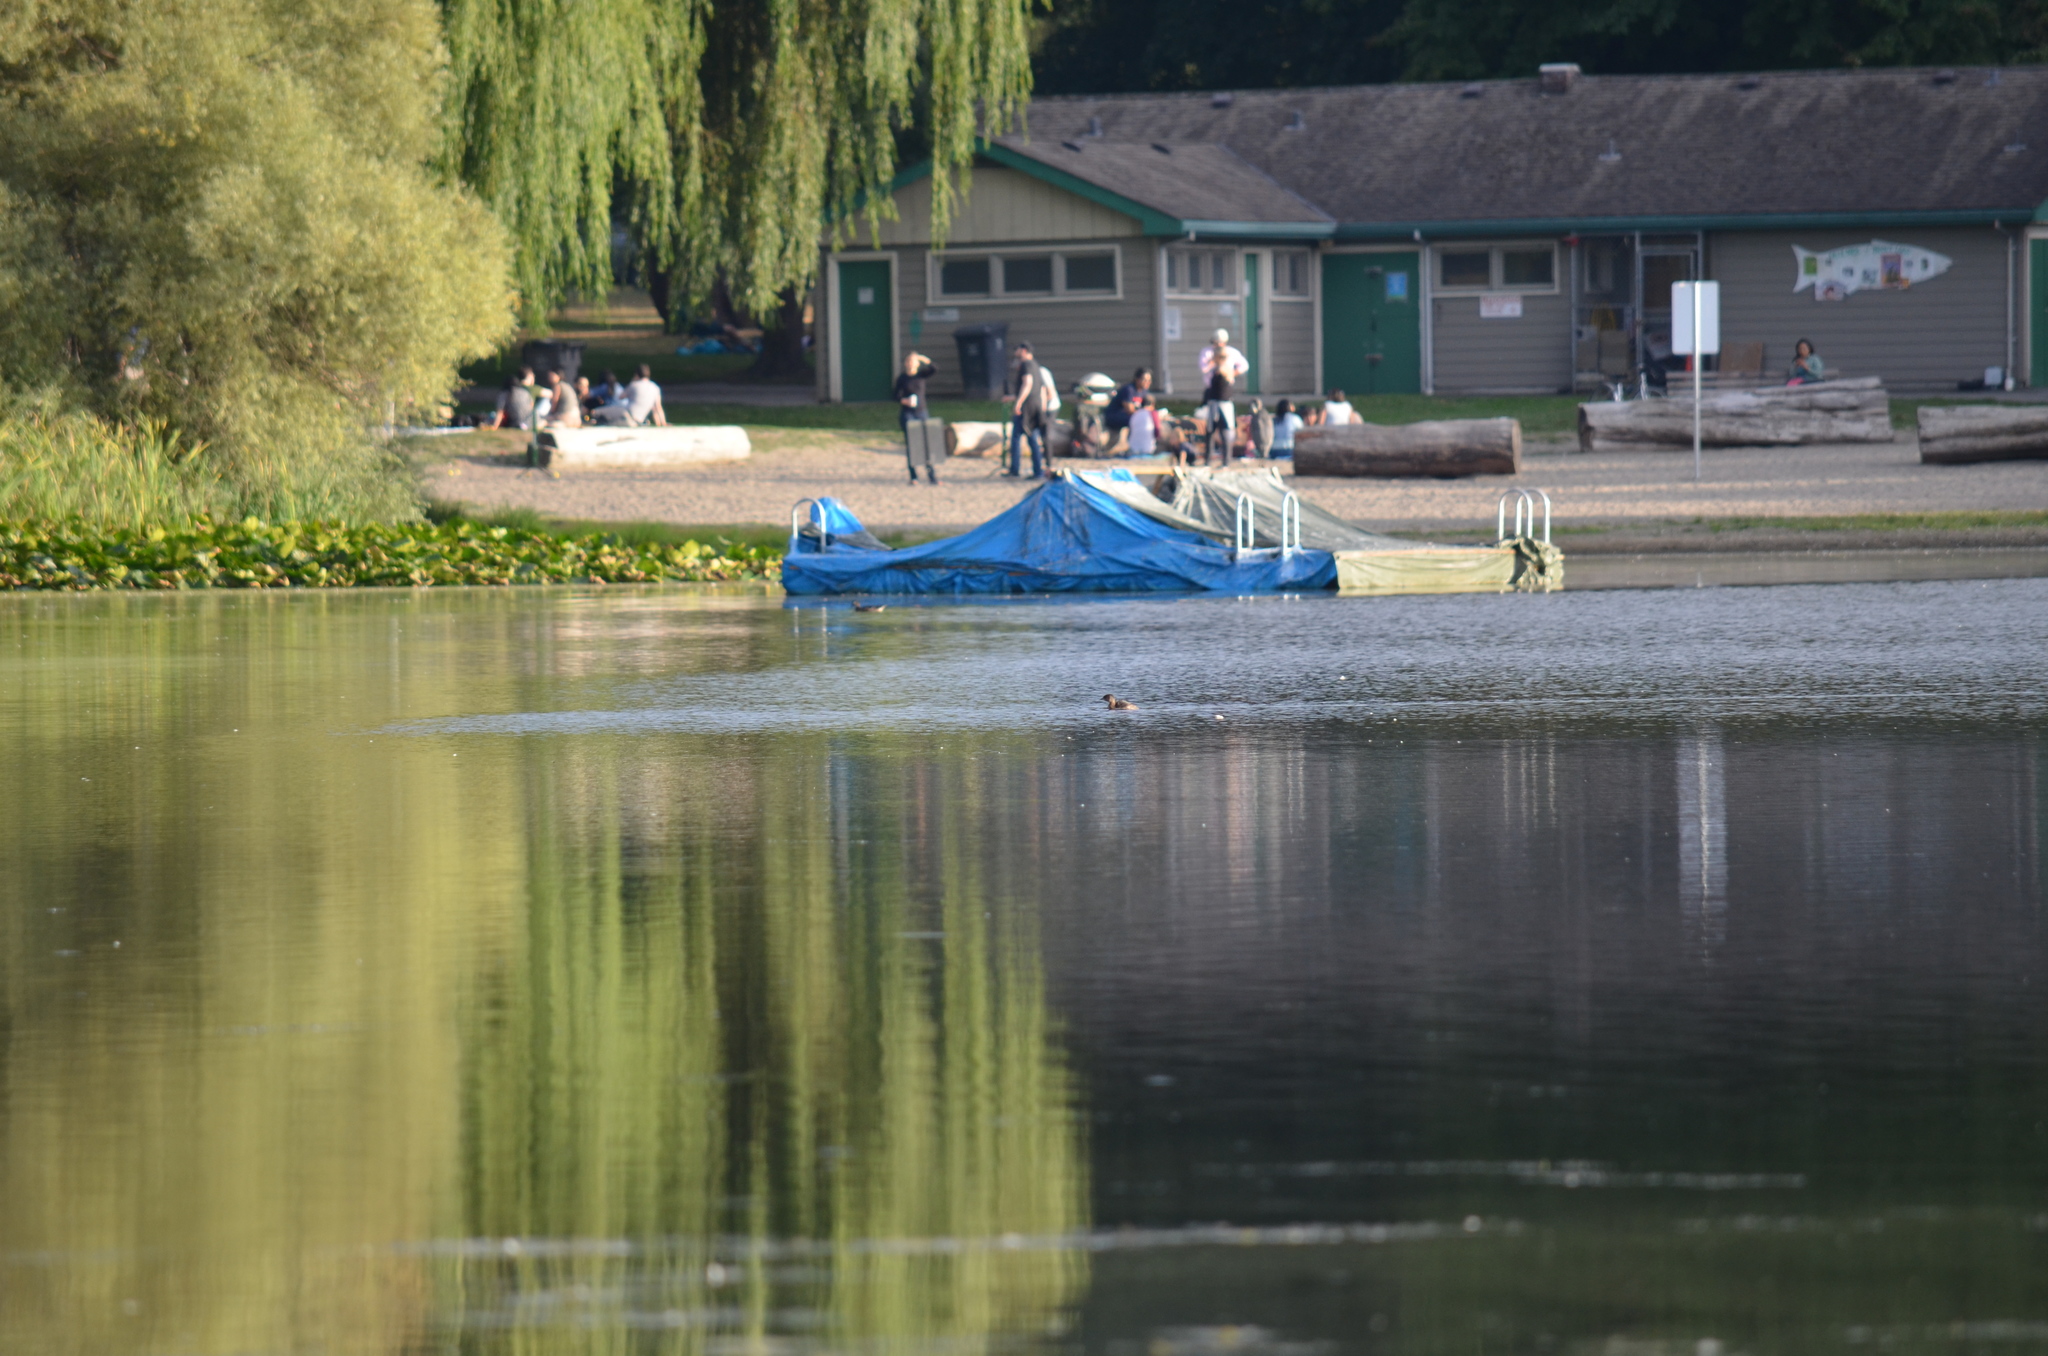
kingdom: Animalia
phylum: Chordata
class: Aves
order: Podicipediformes
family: Podicipedidae
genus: Podilymbus
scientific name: Podilymbus podiceps
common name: Pied-billed grebe
